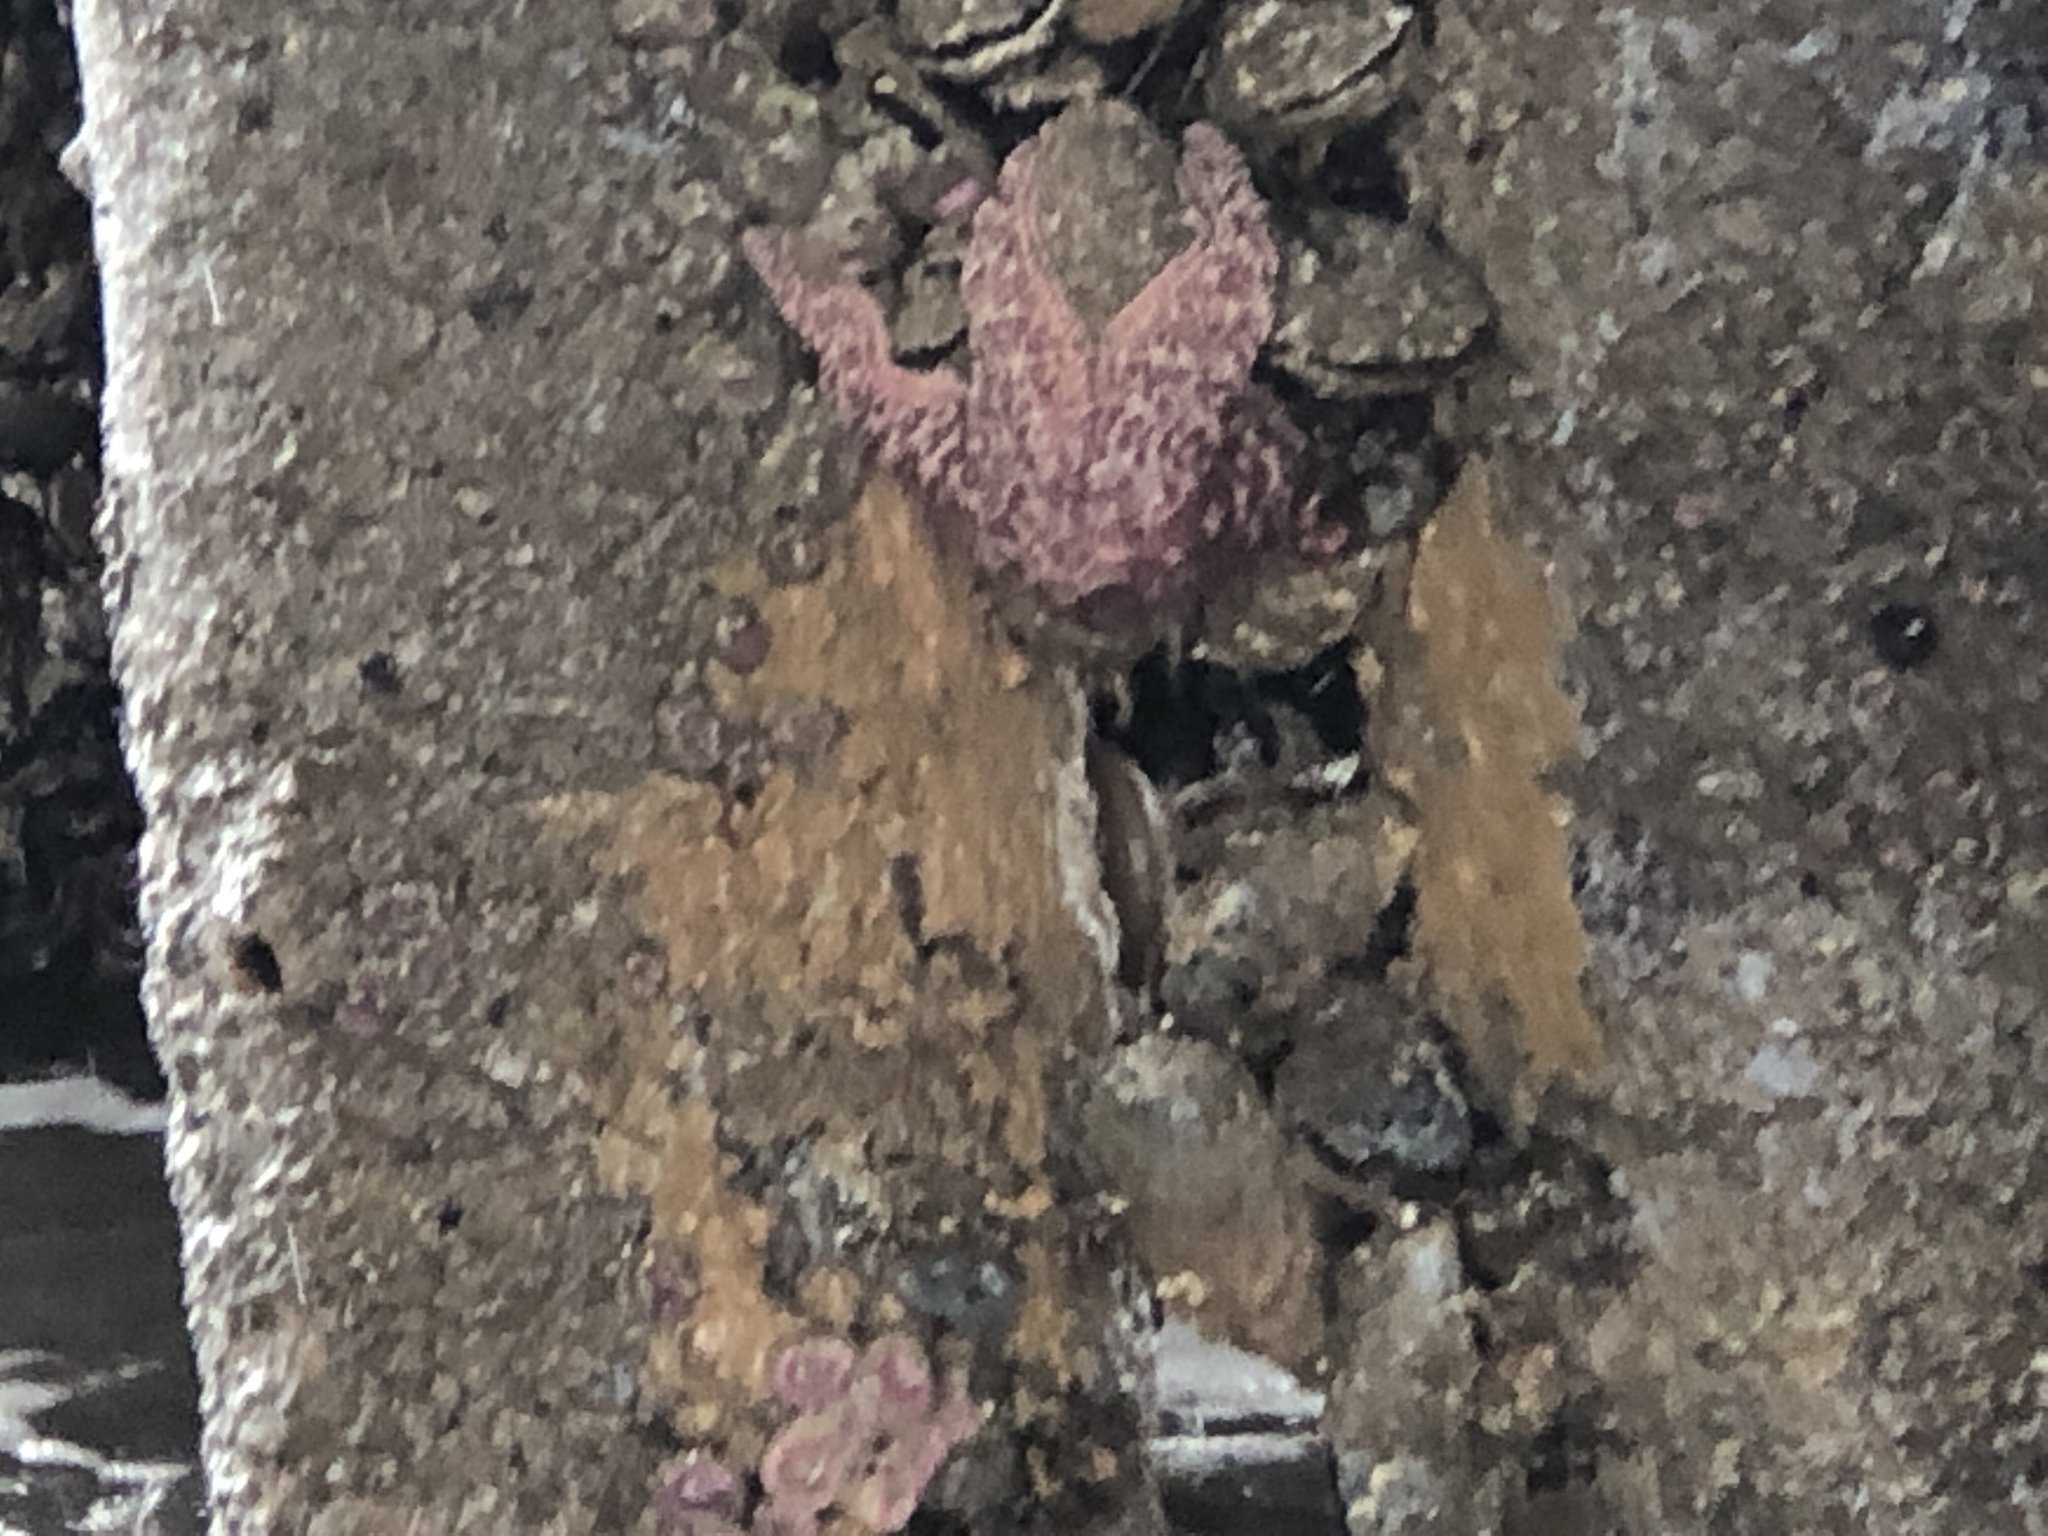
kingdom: Animalia
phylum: Echinodermata
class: Asteroidea
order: Forcipulatida
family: Asteriidae
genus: Pisaster
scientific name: Pisaster ochraceus
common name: Ochre stars
